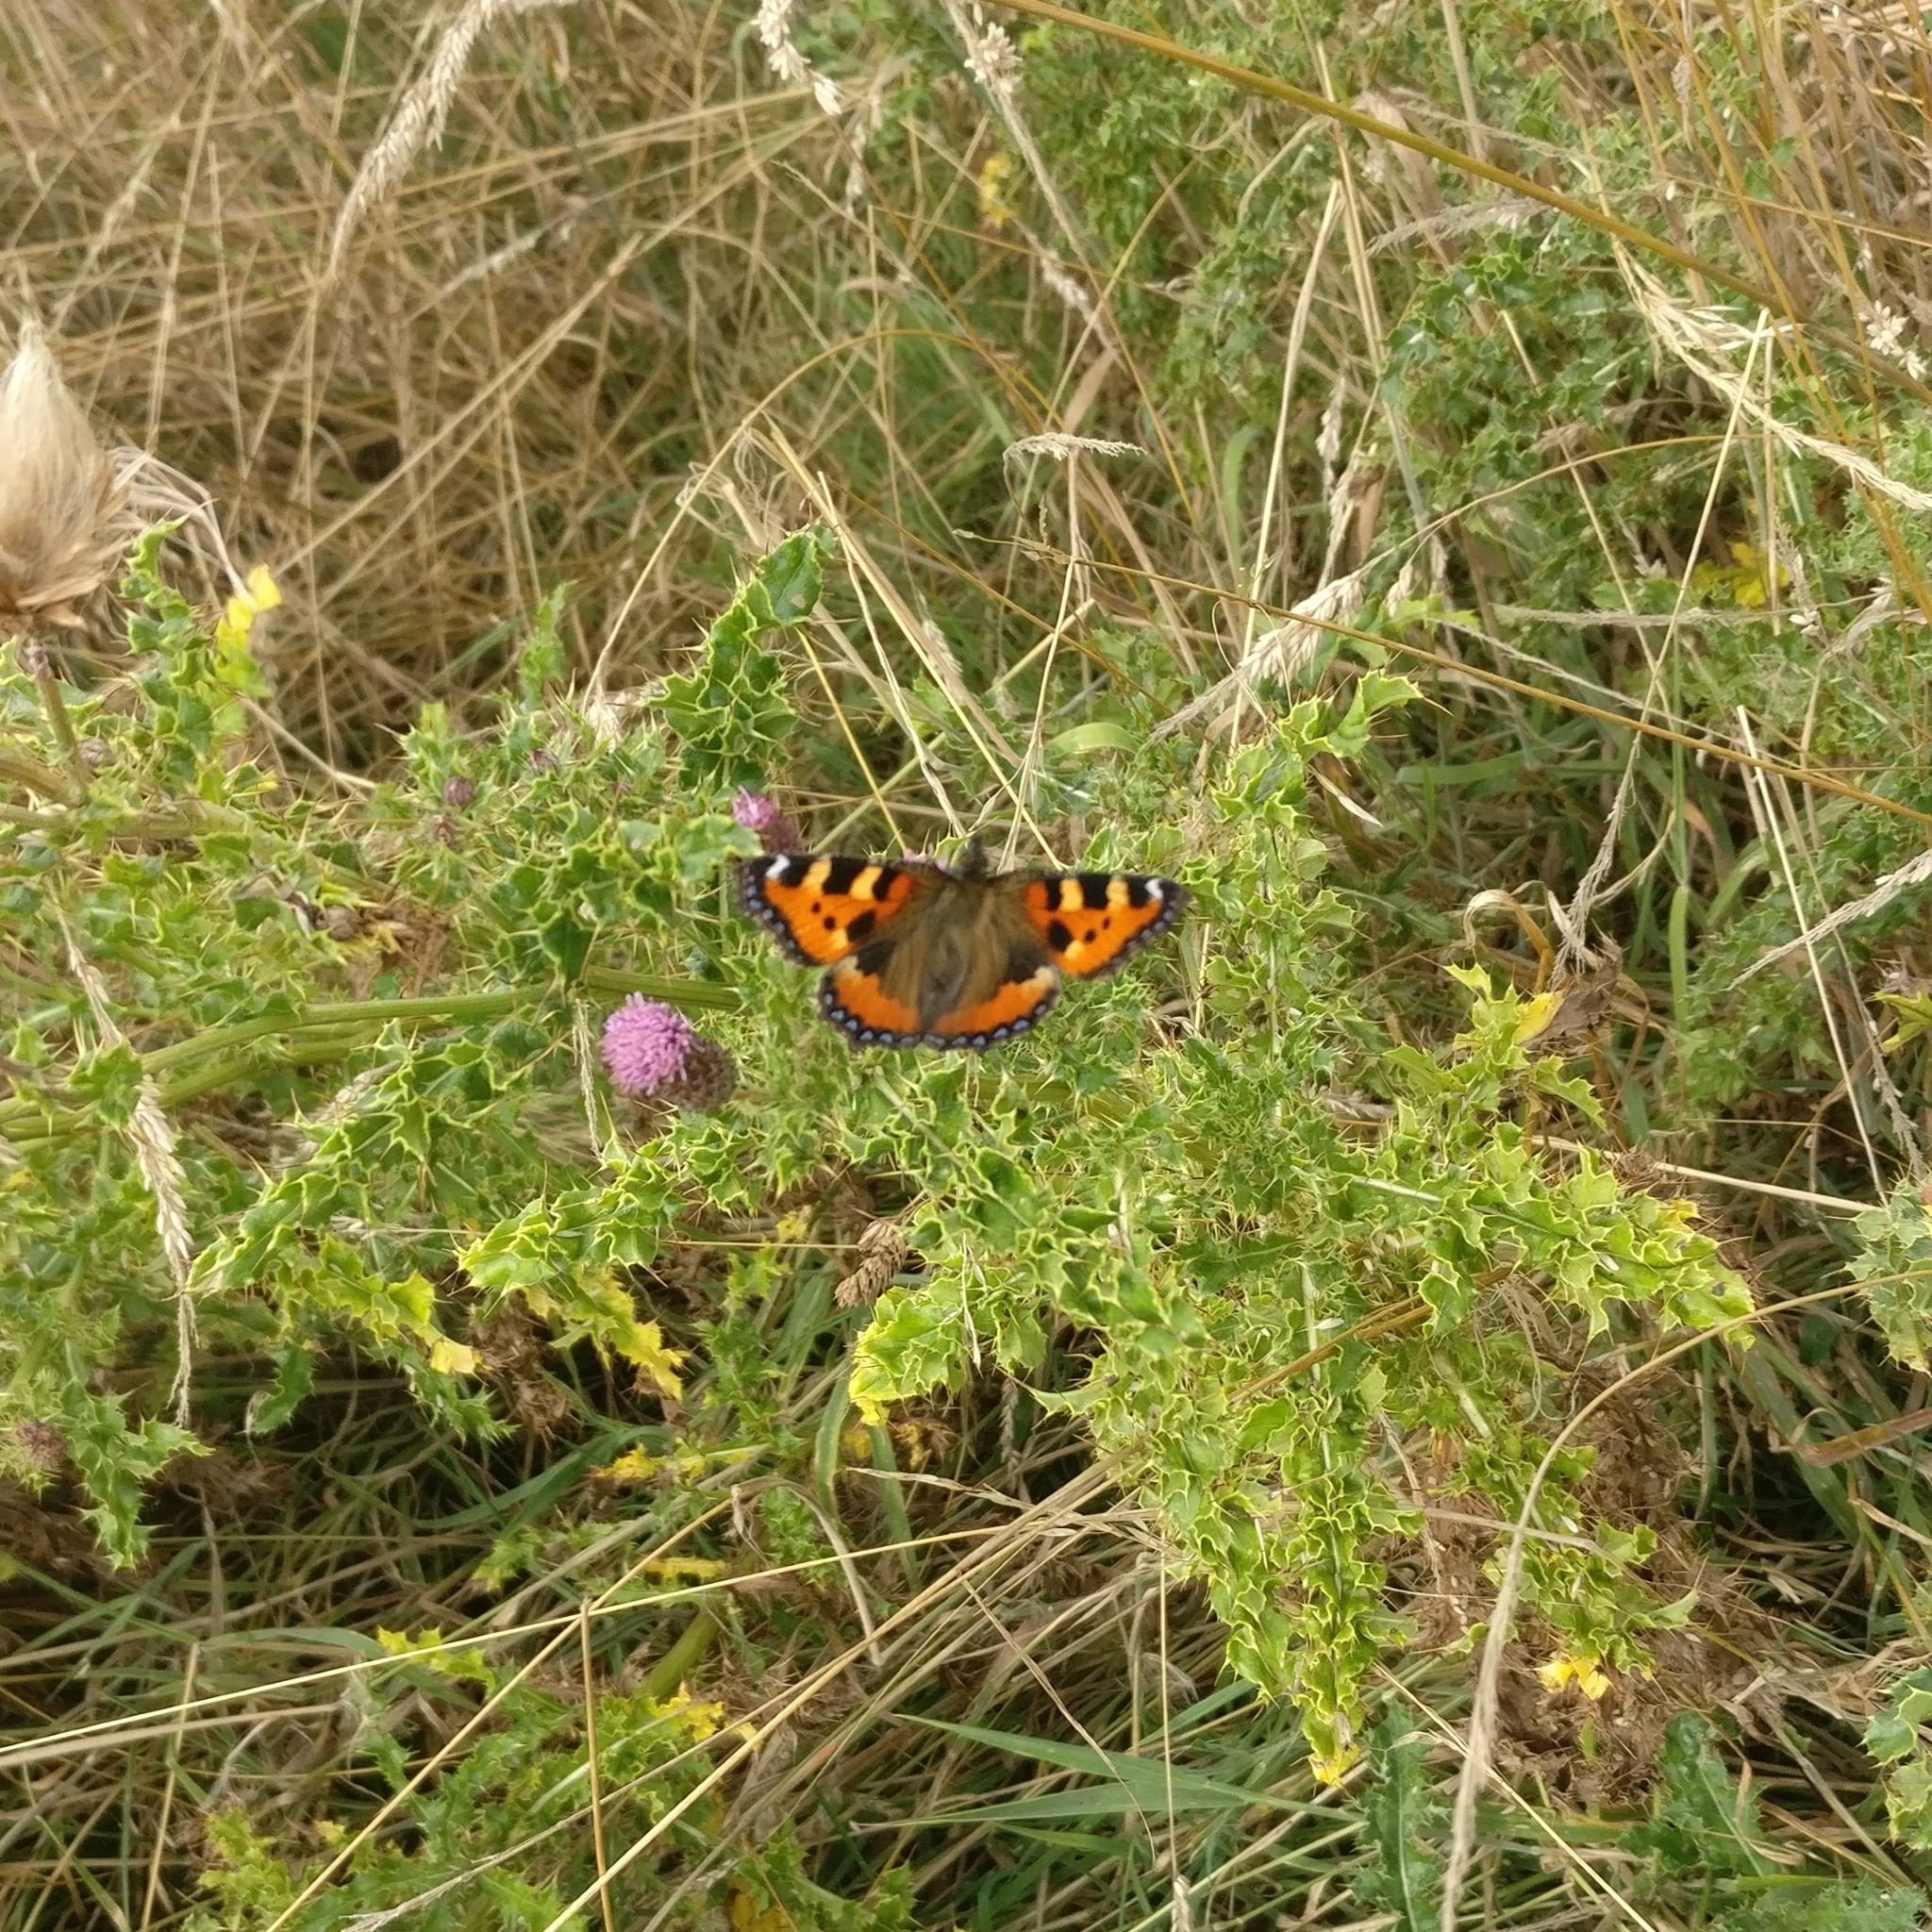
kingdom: Animalia
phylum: Arthropoda
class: Insecta
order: Lepidoptera
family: Nymphalidae
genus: Aglais
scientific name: Aglais urticae
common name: Small tortoiseshell
